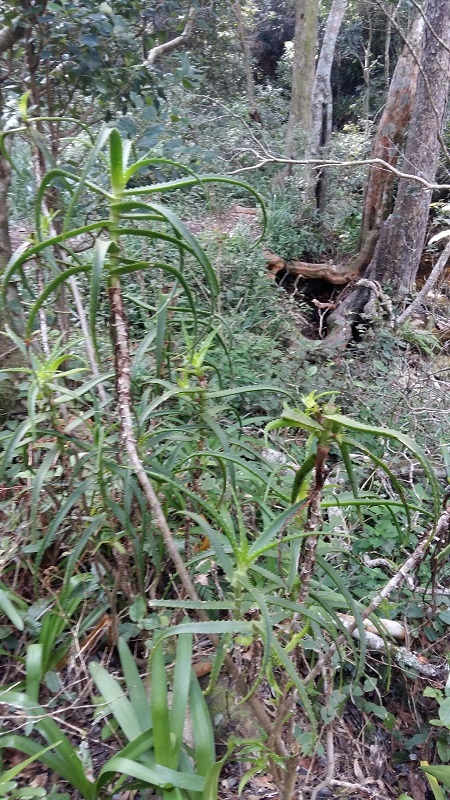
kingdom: Plantae
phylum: Tracheophyta
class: Liliopsida
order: Asparagales
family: Asphodelaceae
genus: Aloe
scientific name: Aloe arborescens
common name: Candelabra aloe
